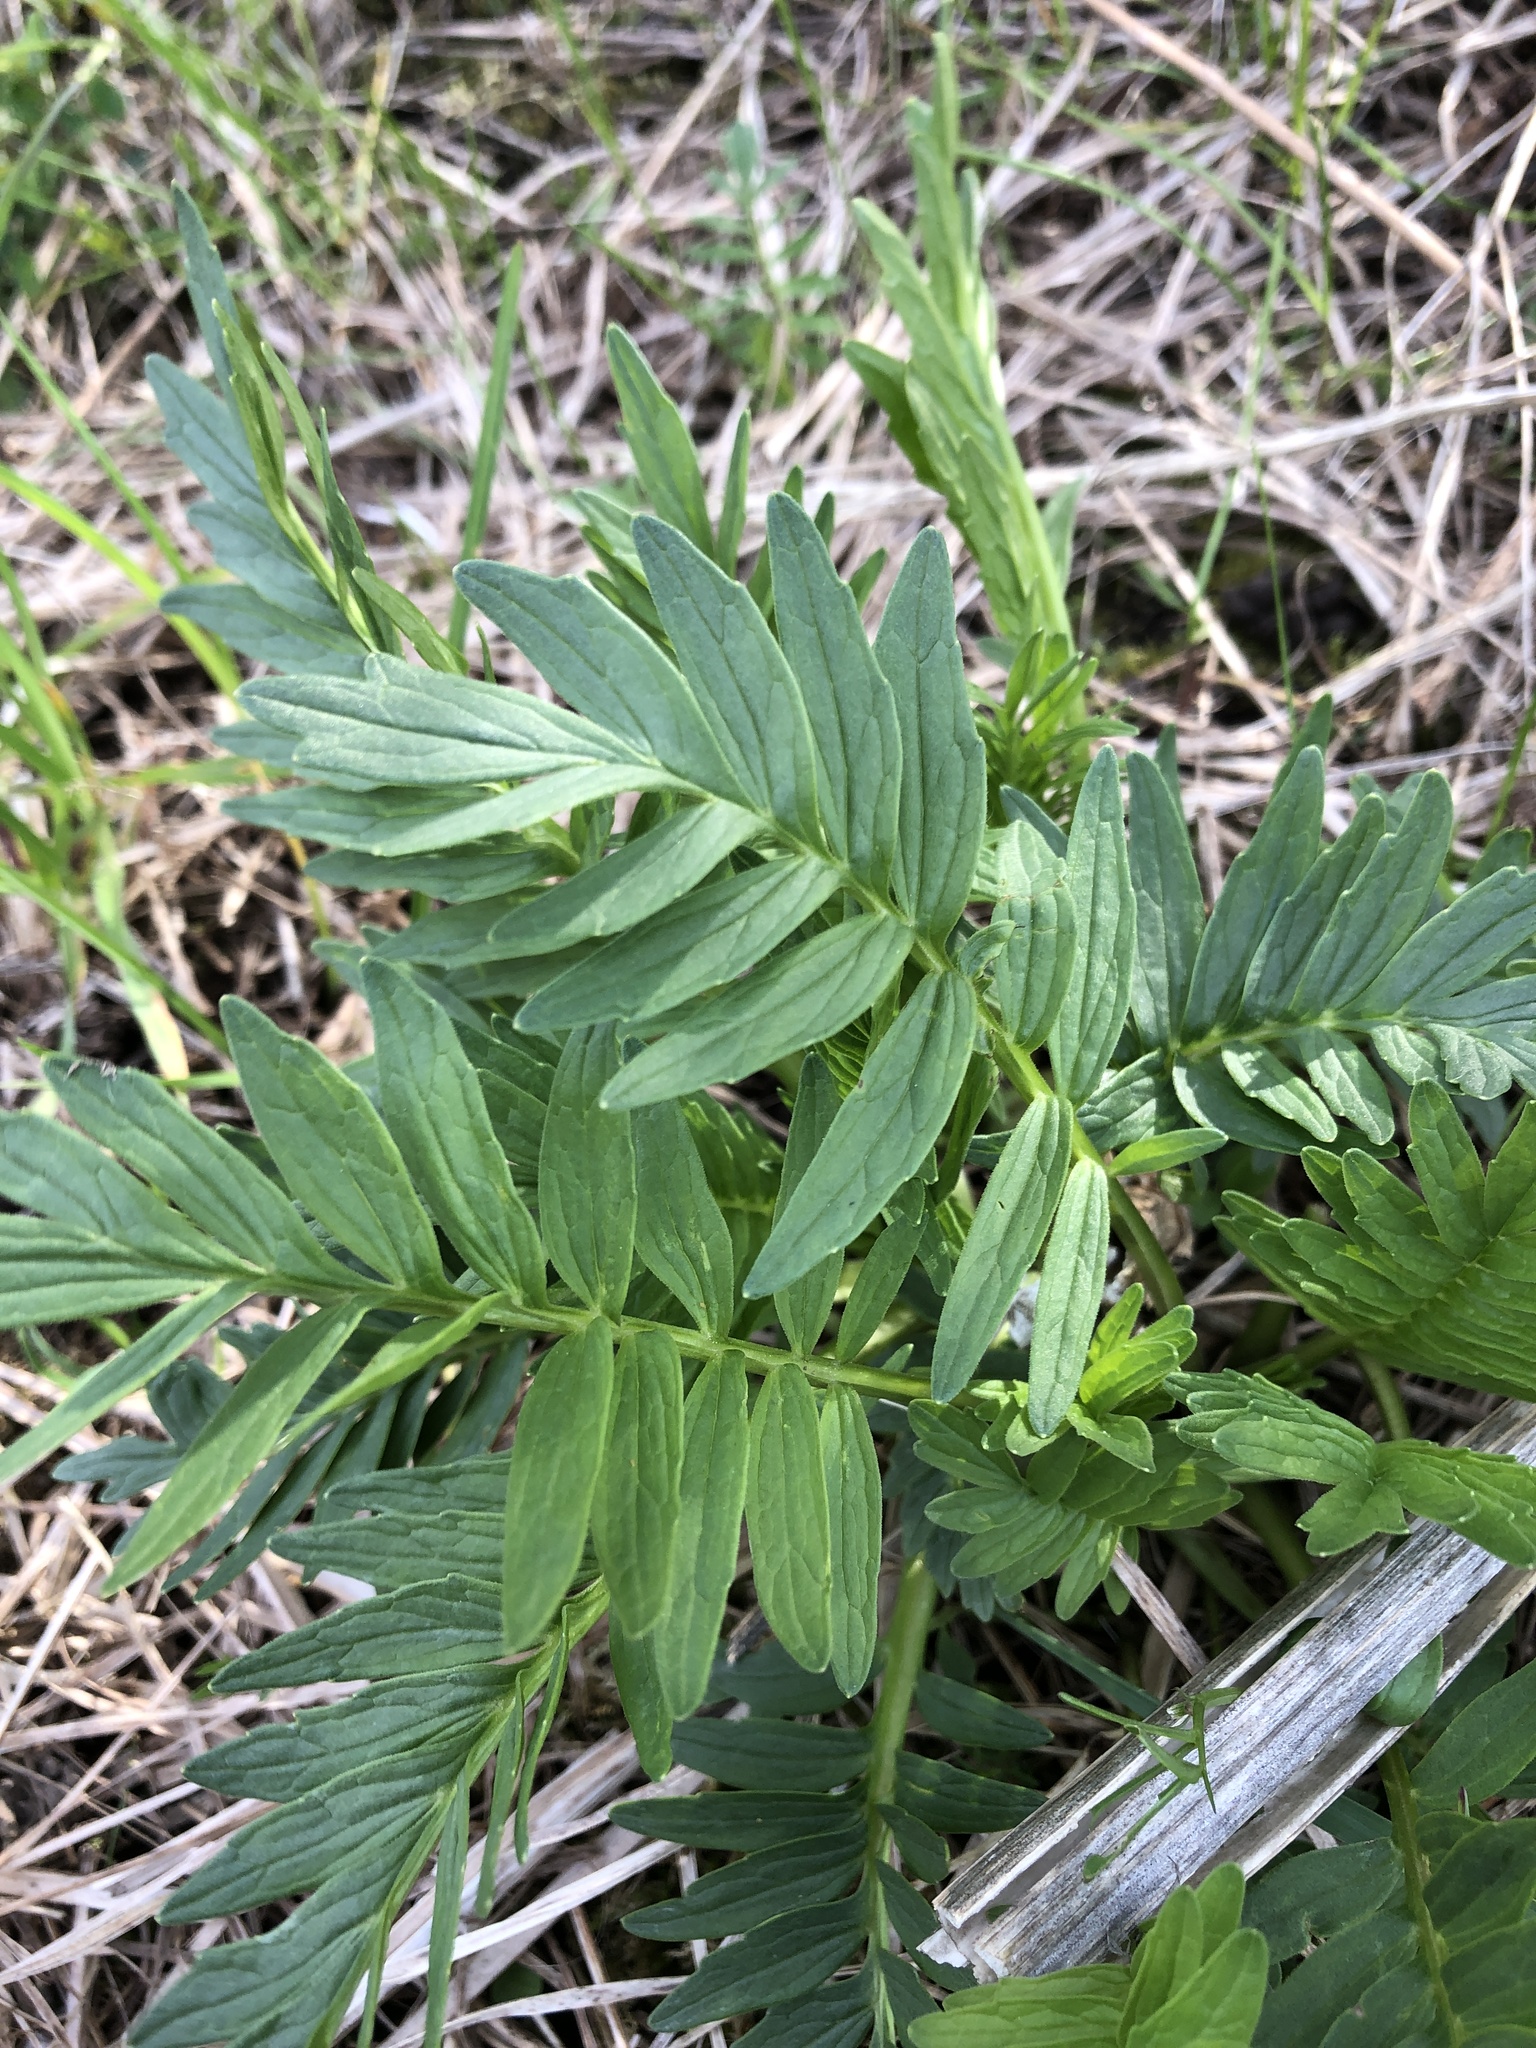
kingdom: Plantae
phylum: Tracheophyta
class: Magnoliopsida
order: Dipsacales
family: Caprifoliaceae
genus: Valeriana
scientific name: Valeriana officinalis
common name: Common valerian
